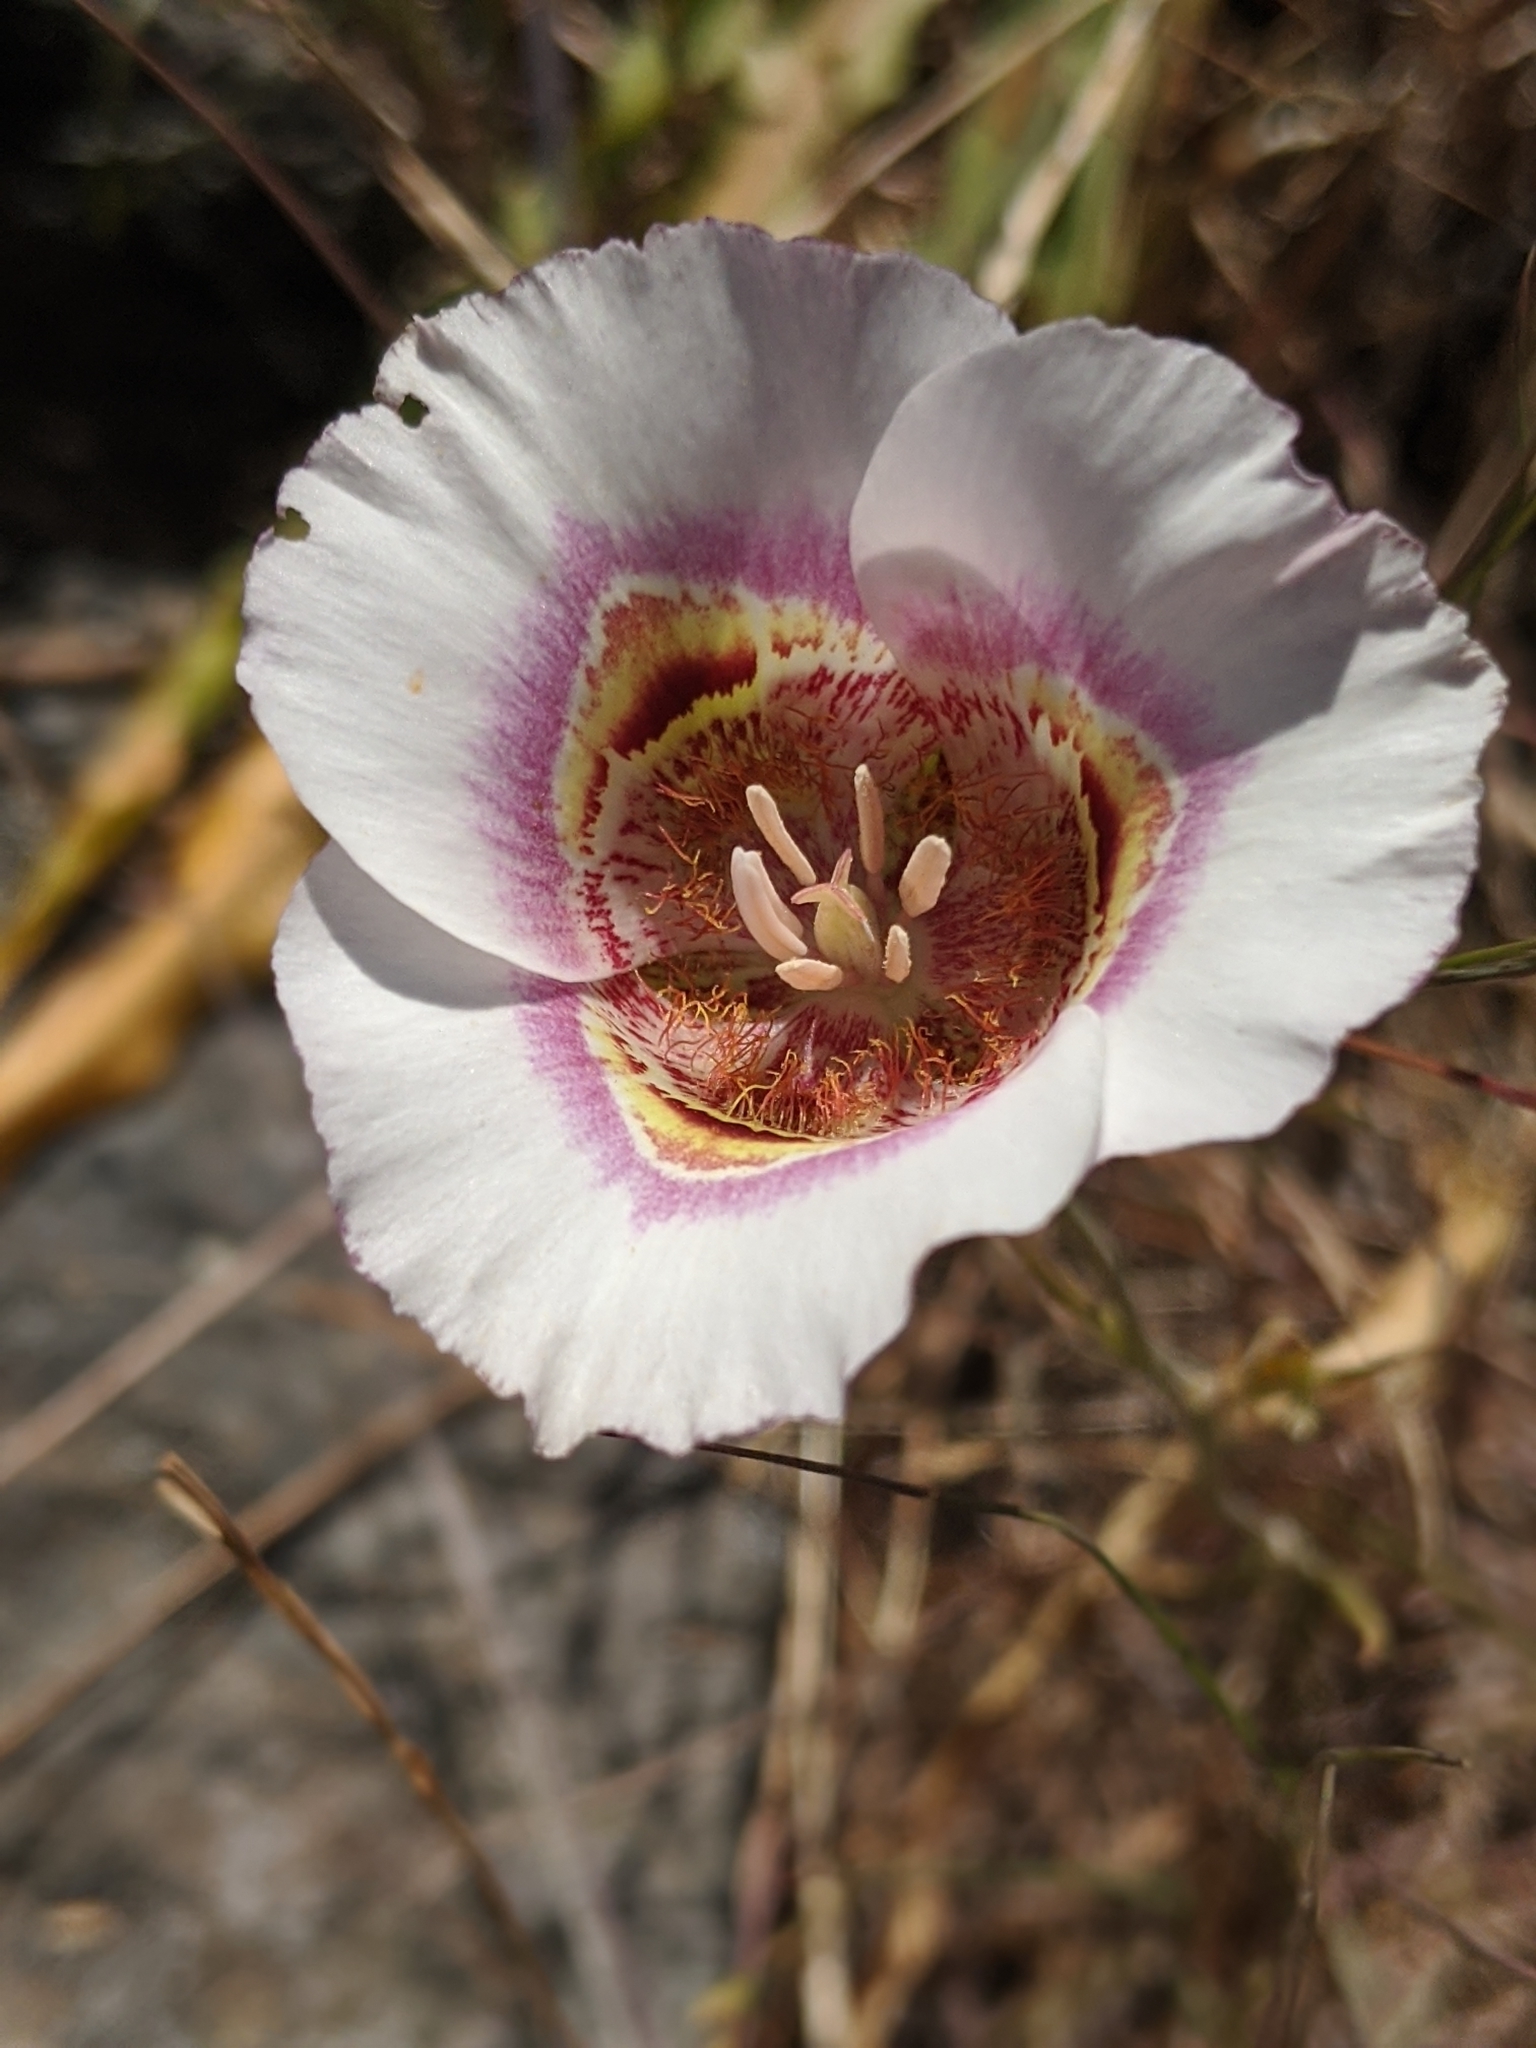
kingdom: Plantae
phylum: Tracheophyta
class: Liliopsida
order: Liliales
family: Liliaceae
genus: Calochortus
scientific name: Calochortus argillosus
